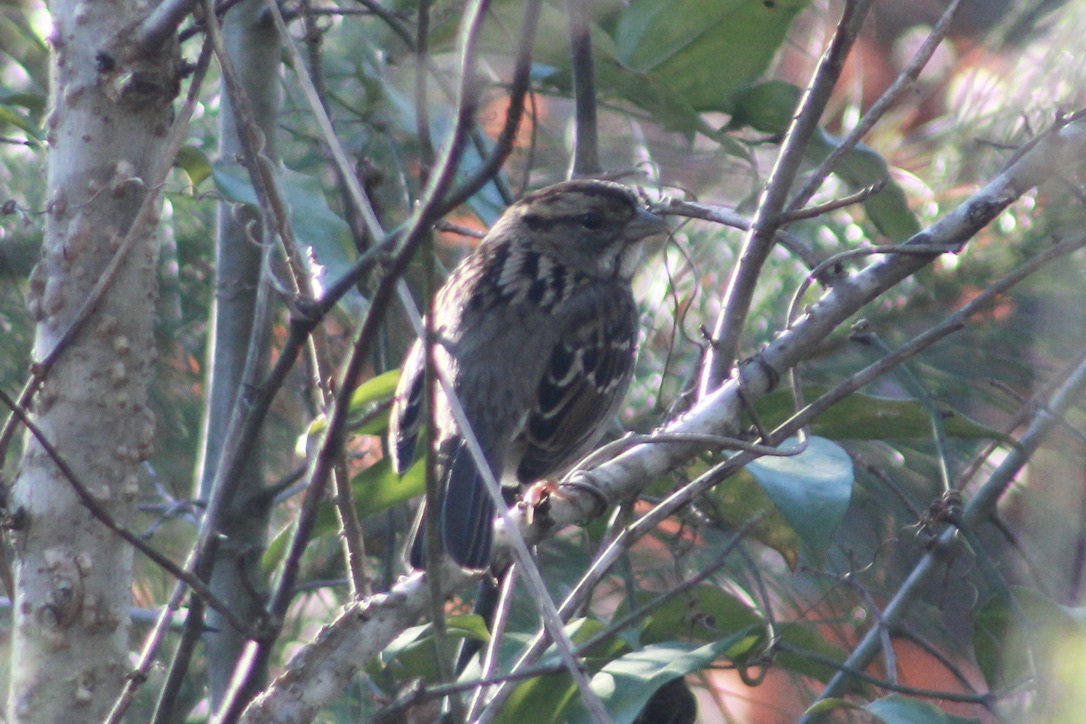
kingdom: Animalia
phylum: Chordata
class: Aves
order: Passeriformes
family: Passerellidae
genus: Zonotrichia
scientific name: Zonotrichia albicollis
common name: White-throated sparrow
